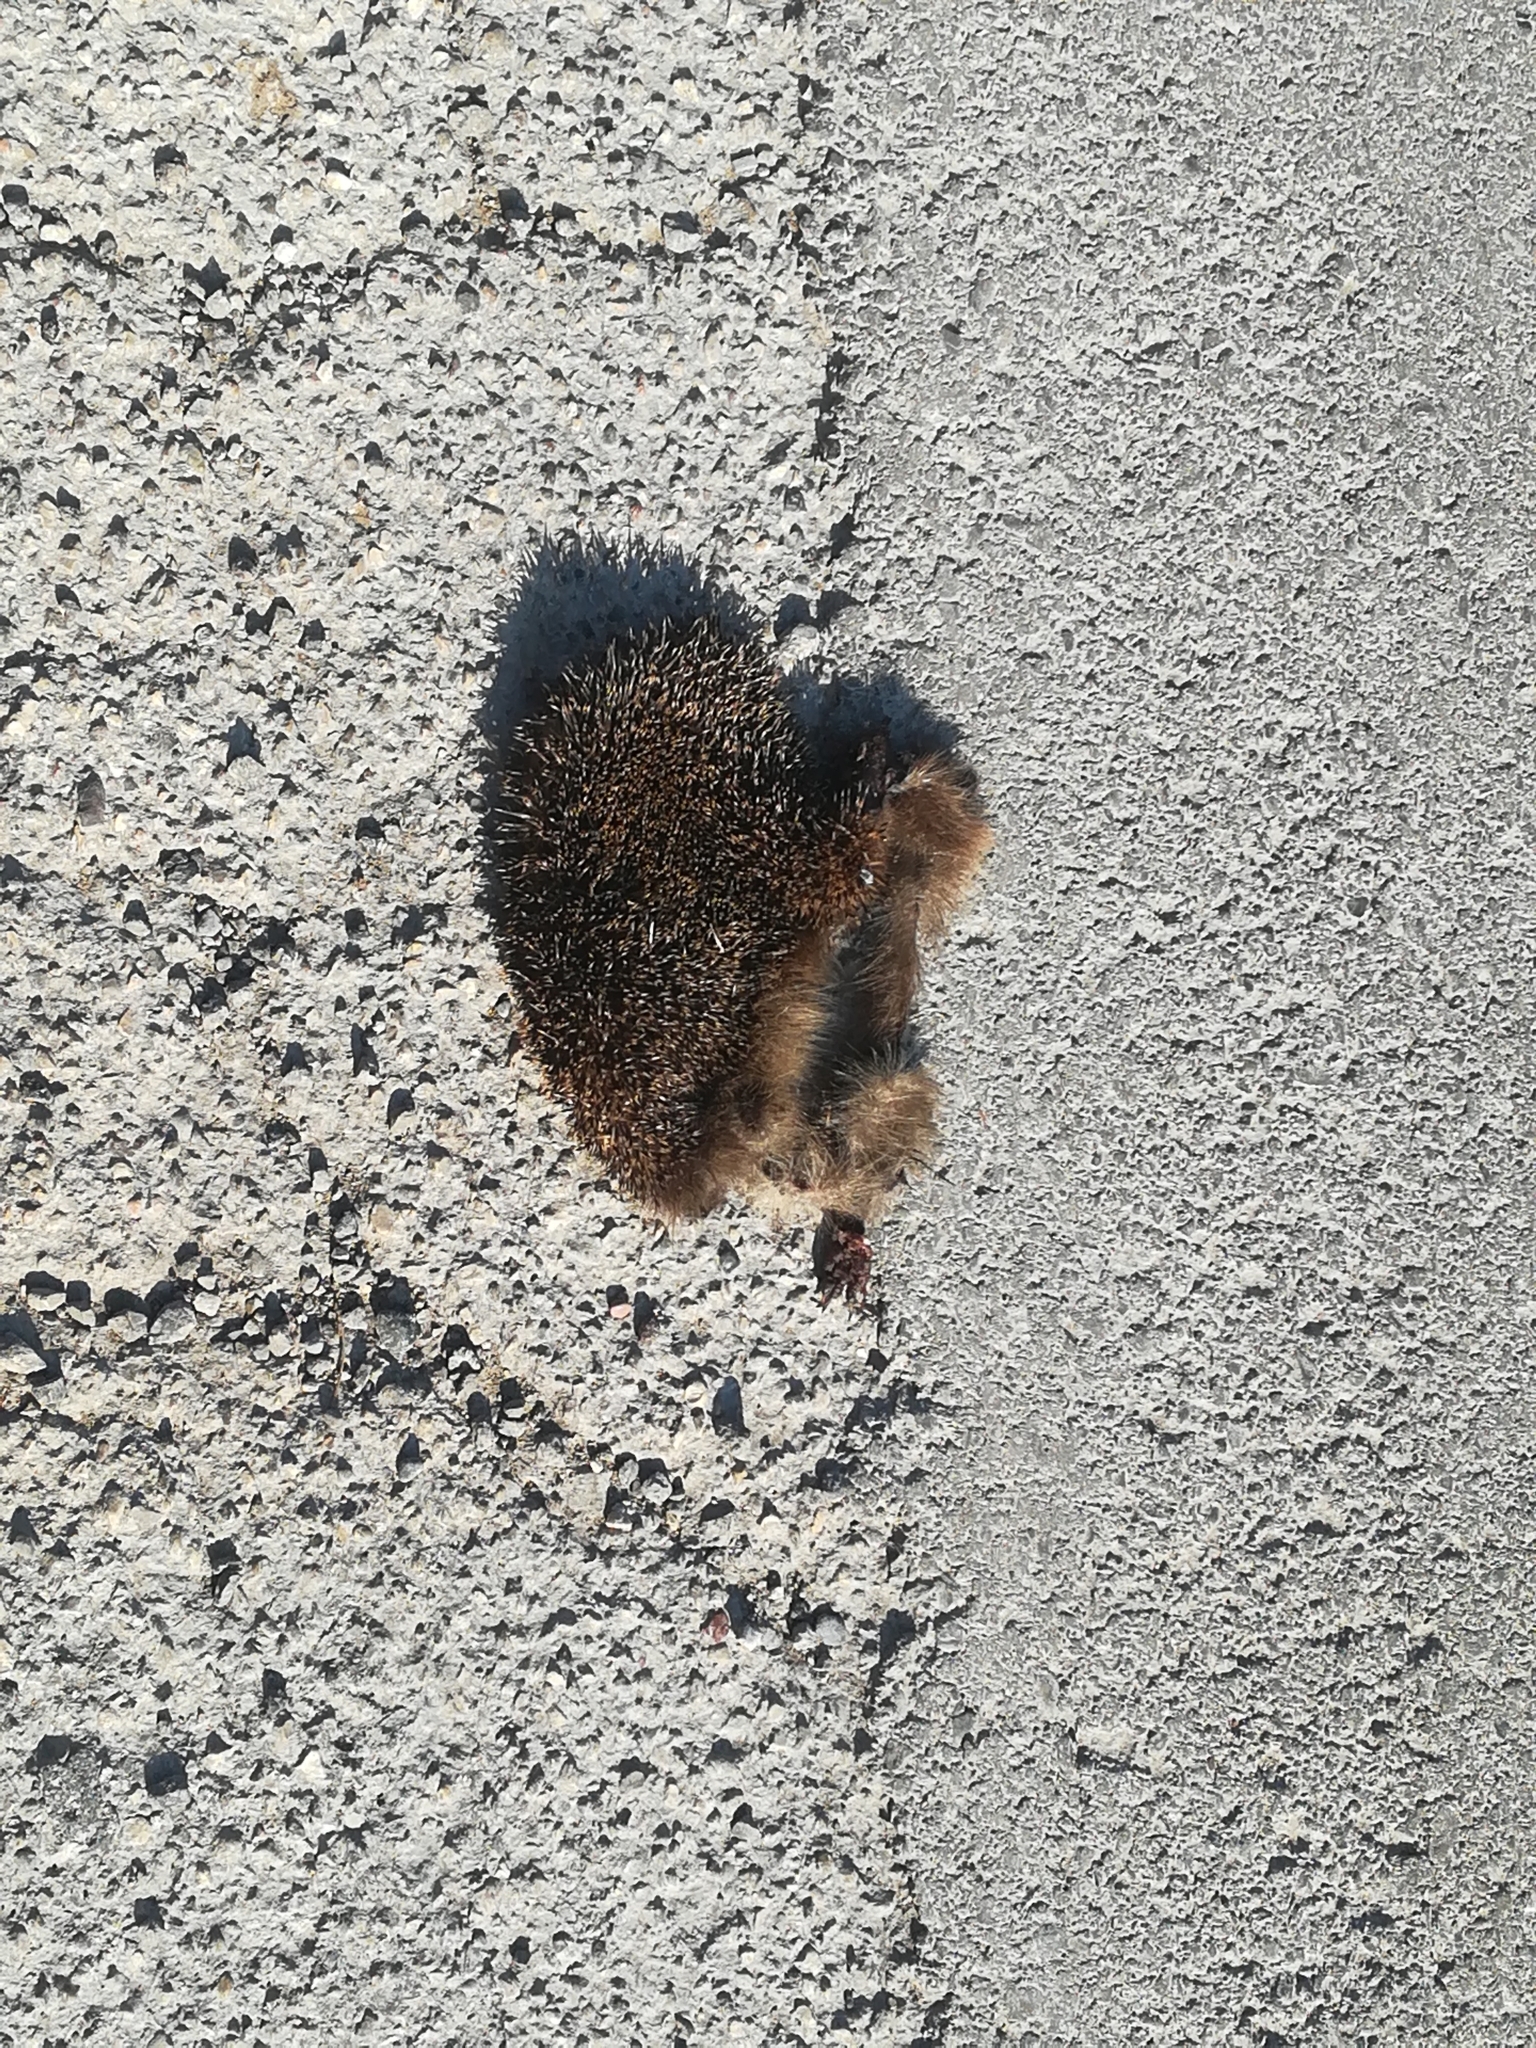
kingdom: Animalia
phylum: Chordata
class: Mammalia
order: Erinaceomorpha
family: Erinaceidae
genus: Erinaceus
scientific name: Erinaceus europaeus
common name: West european hedgehog
